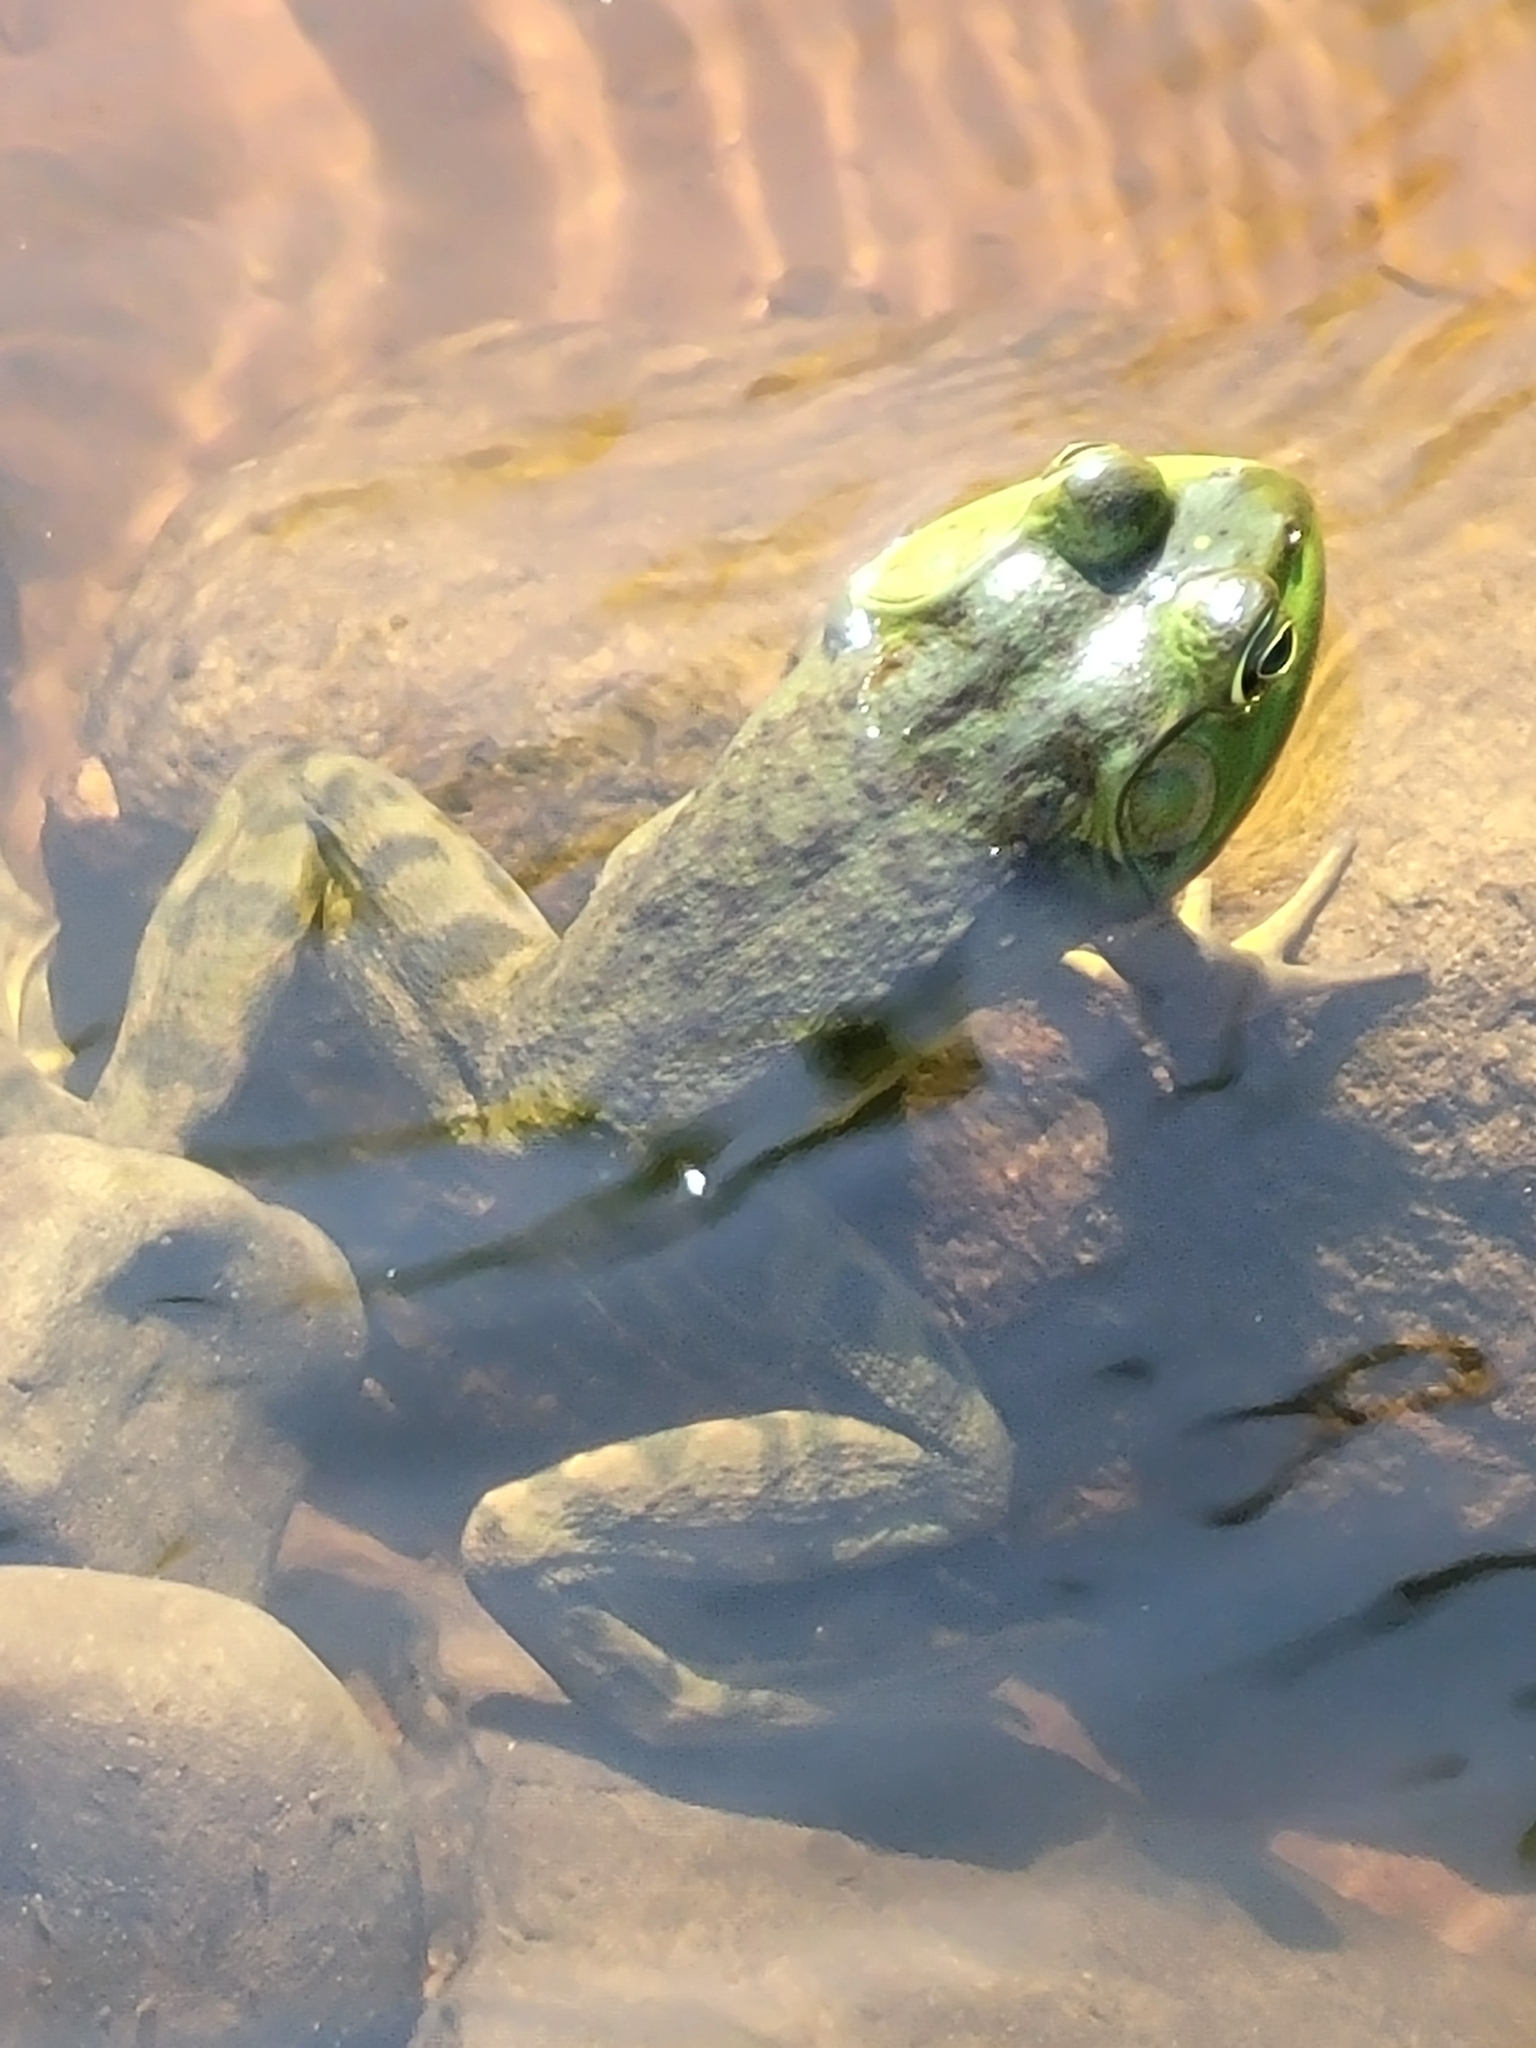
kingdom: Animalia
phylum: Chordata
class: Amphibia
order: Anura
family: Ranidae
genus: Lithobates
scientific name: Lithobates catesbeianus
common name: American bullfrog
